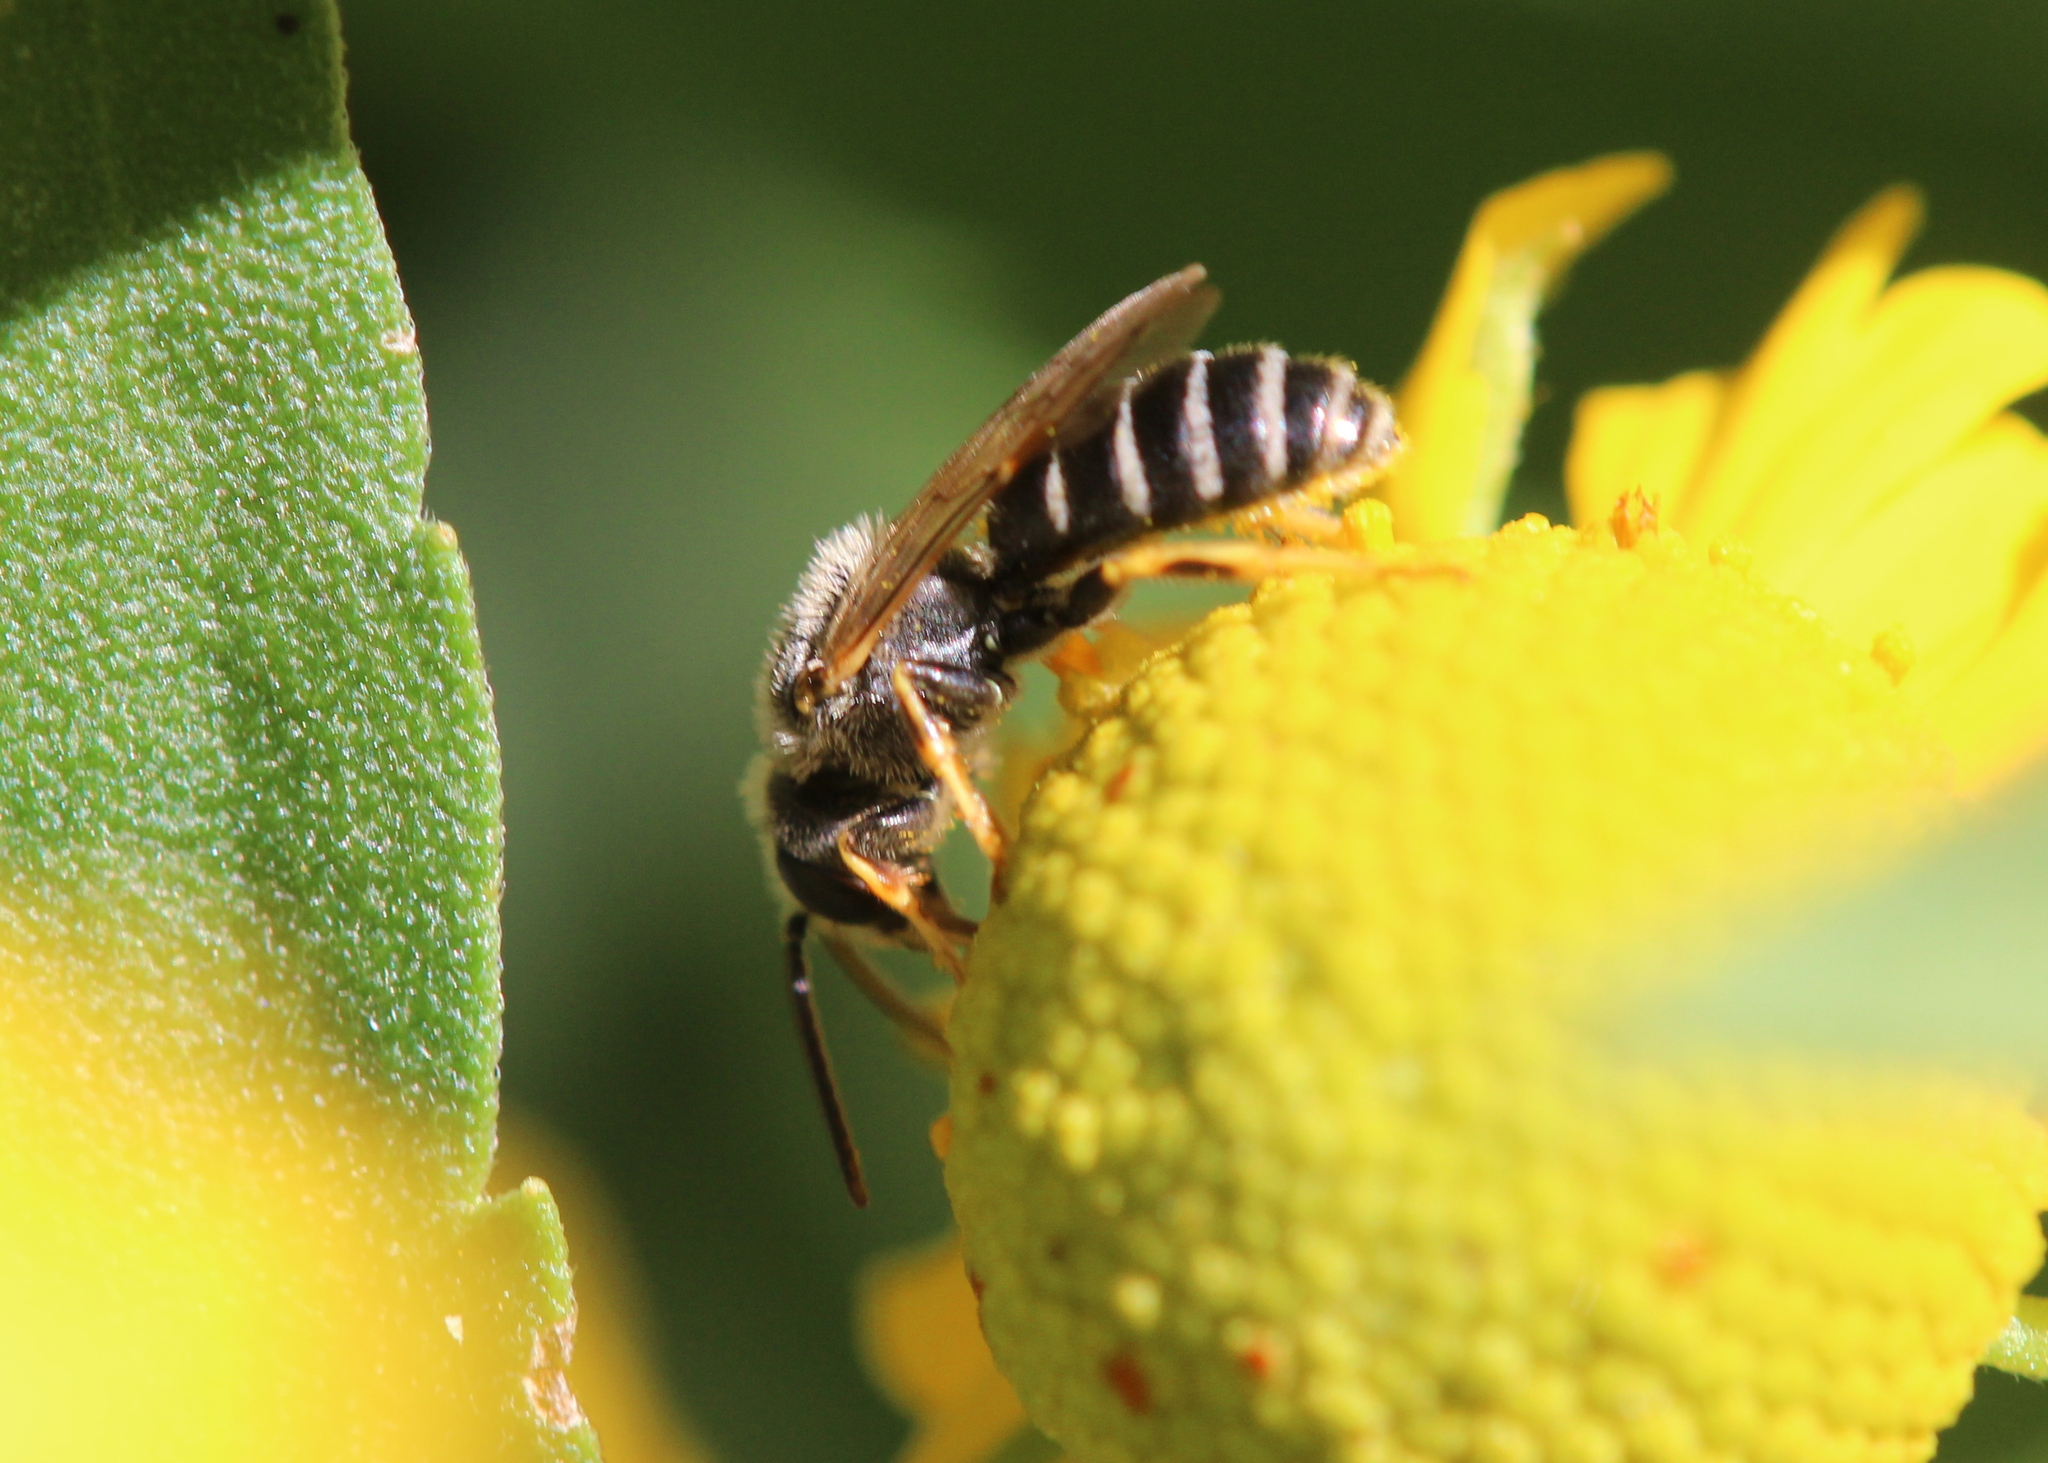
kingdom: Animalia
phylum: Arthropoda
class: Insecta
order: Hymenoptera
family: Halictidae
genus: Halictus
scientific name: Halictus ligatus
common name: Ligated furrow bee
